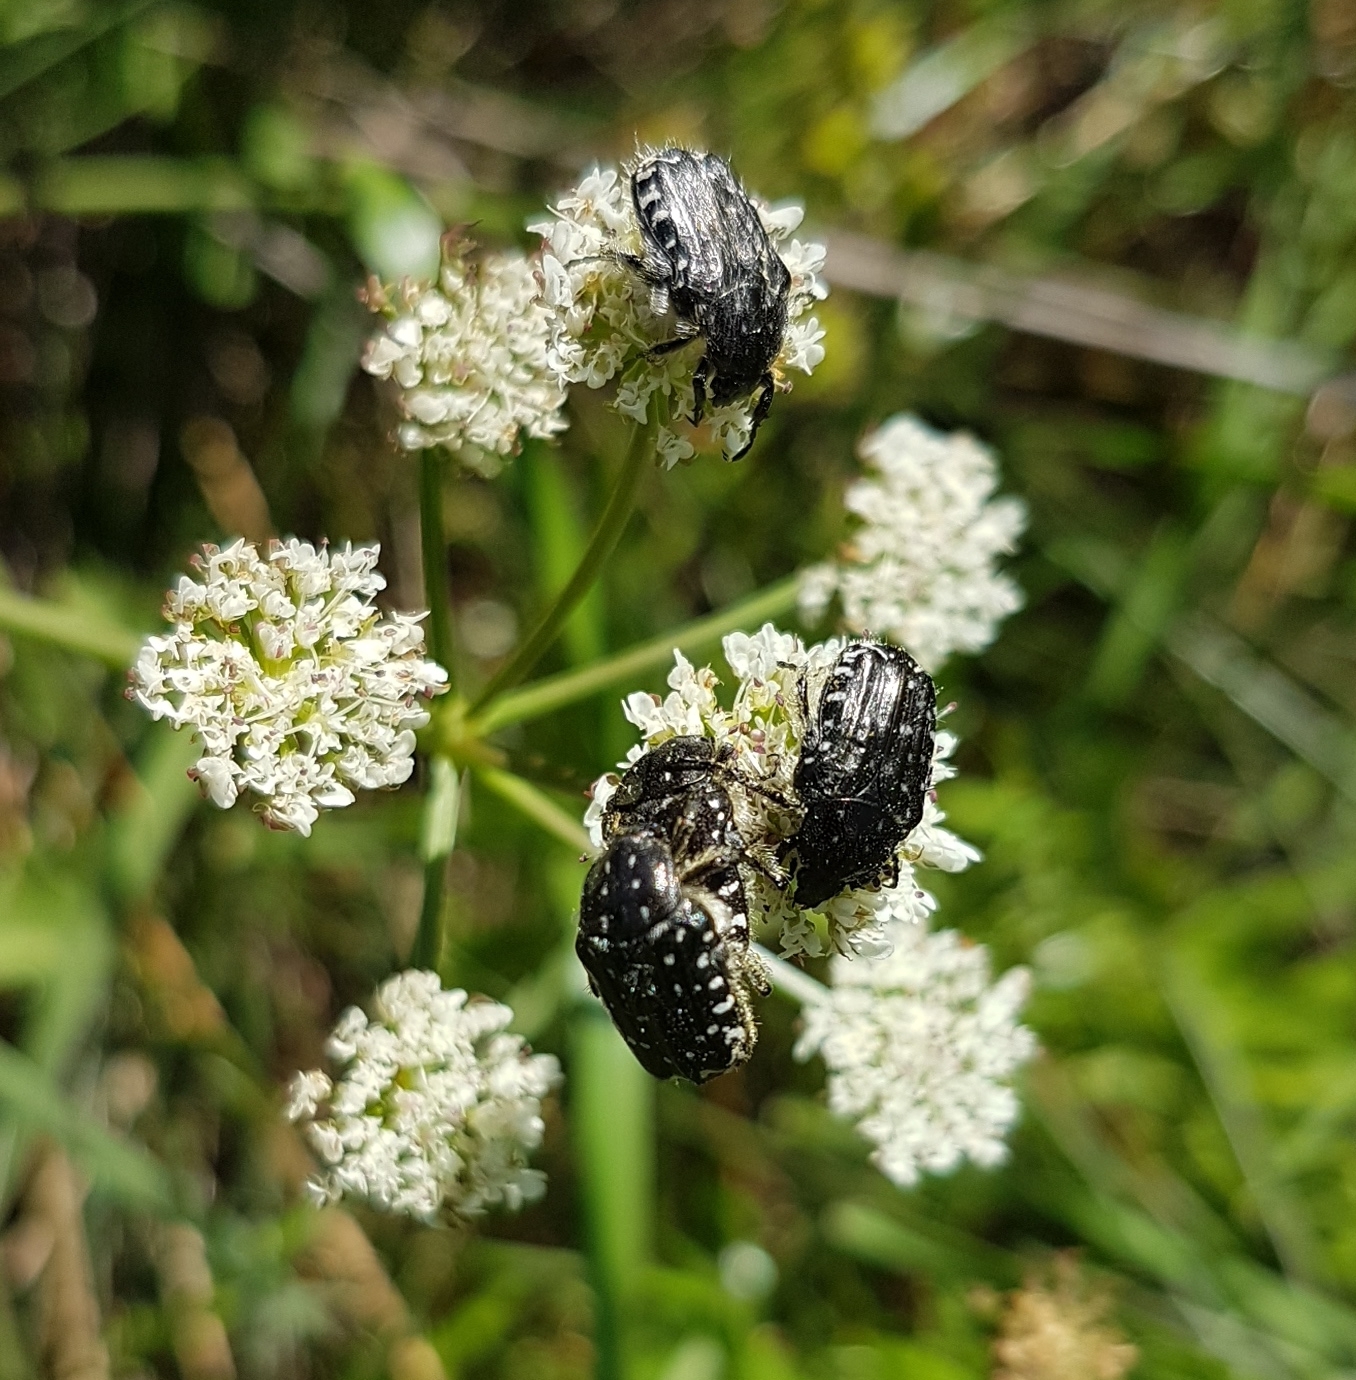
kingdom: Animalia
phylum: Arthropoda
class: Insecta
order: Coleoptera
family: Scarabaeidae
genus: Oxythyrea
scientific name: Oxythyrea funesta
